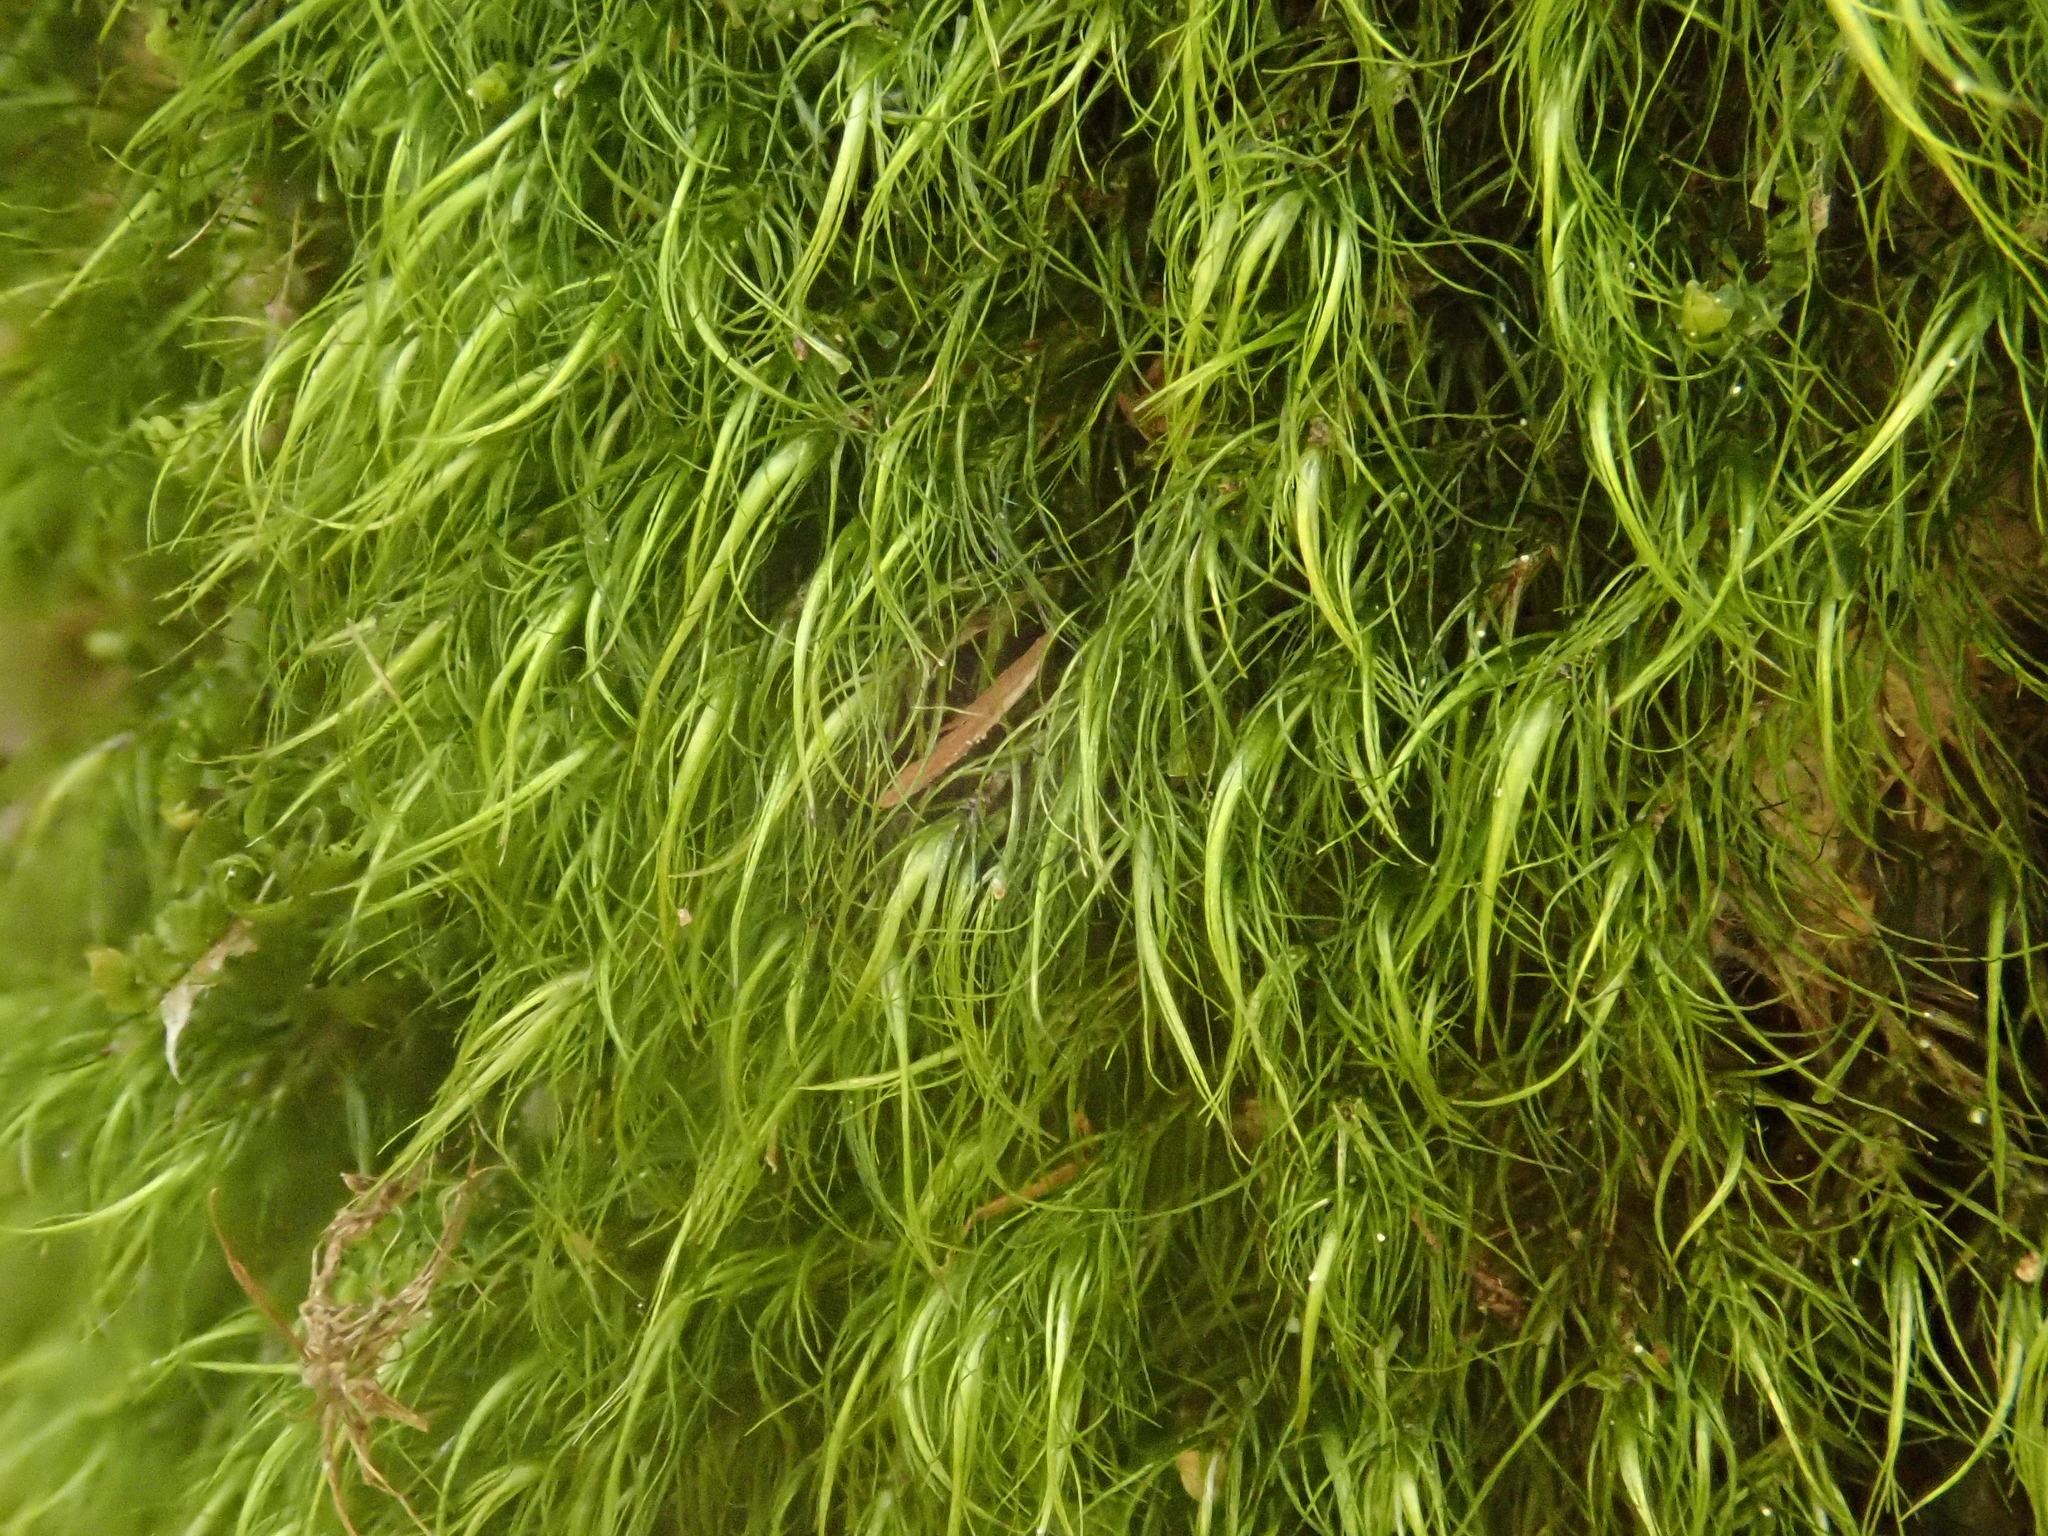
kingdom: Plantae
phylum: Bryophyta
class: Bryopsida
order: Dicranales
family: Dicranaceae
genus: Paraleucobryum
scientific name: Paraleucobryum longifolium
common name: Long-leaved fork moss
